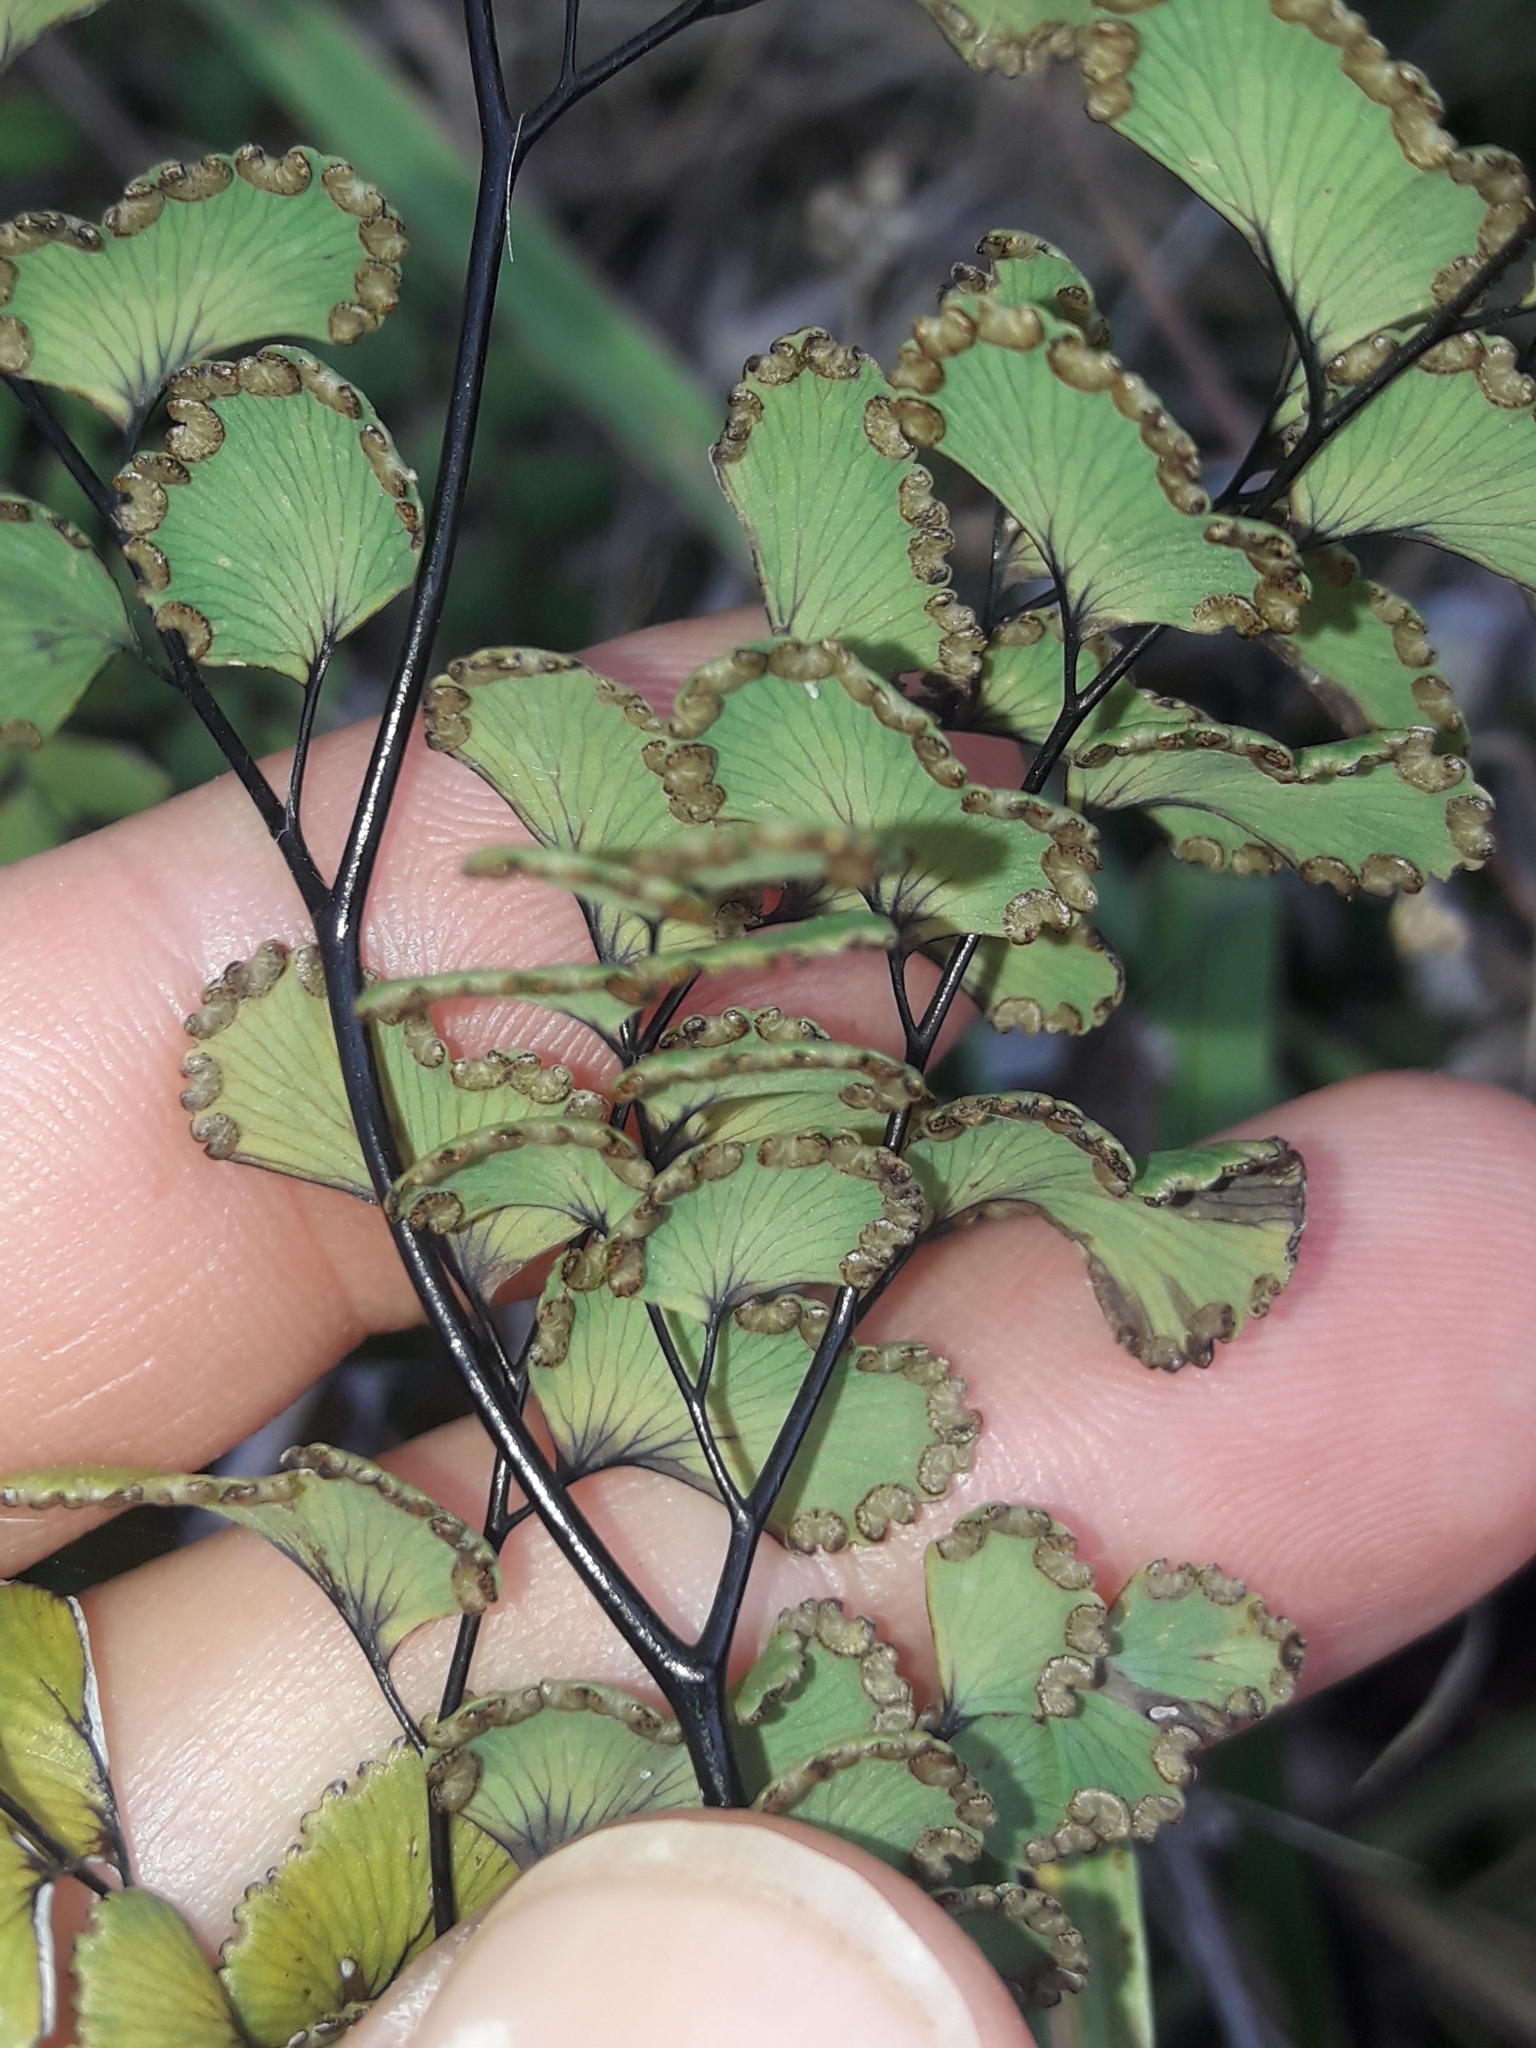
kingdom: Plantae
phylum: Tracheophyta
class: Polypodiopsida
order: Polypodiales
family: Pteridaceae
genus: Adiantum
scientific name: Adiantum cunninghamii
